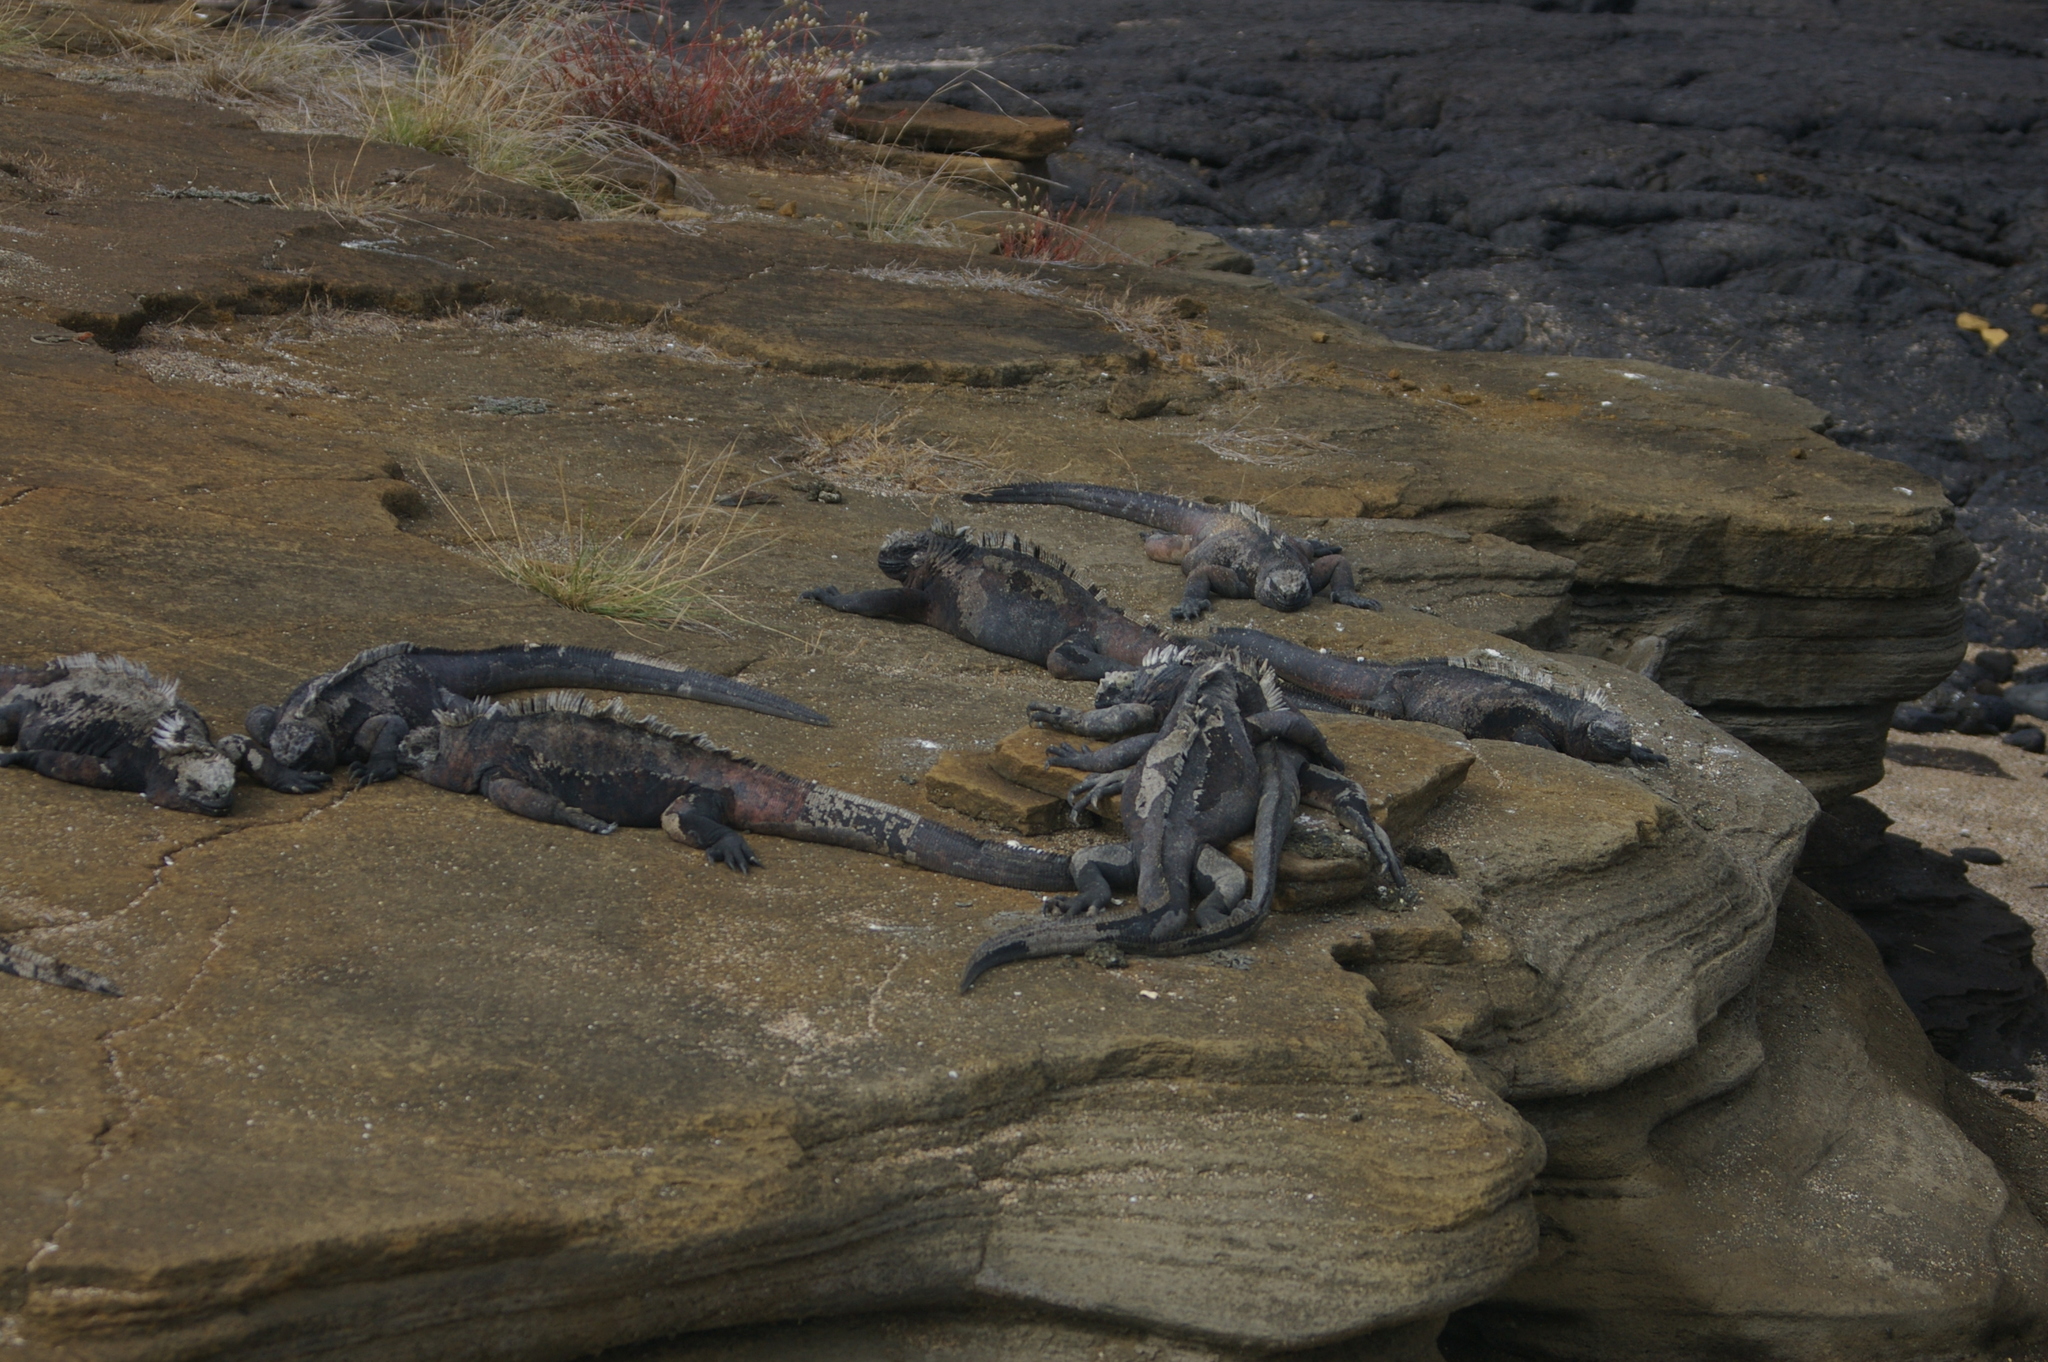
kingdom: Animalia
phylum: Chordata
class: Squamata
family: Iguanidae
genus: Amblyrhynchus
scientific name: Amblyrhynchus cristatus
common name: Marine iguana
